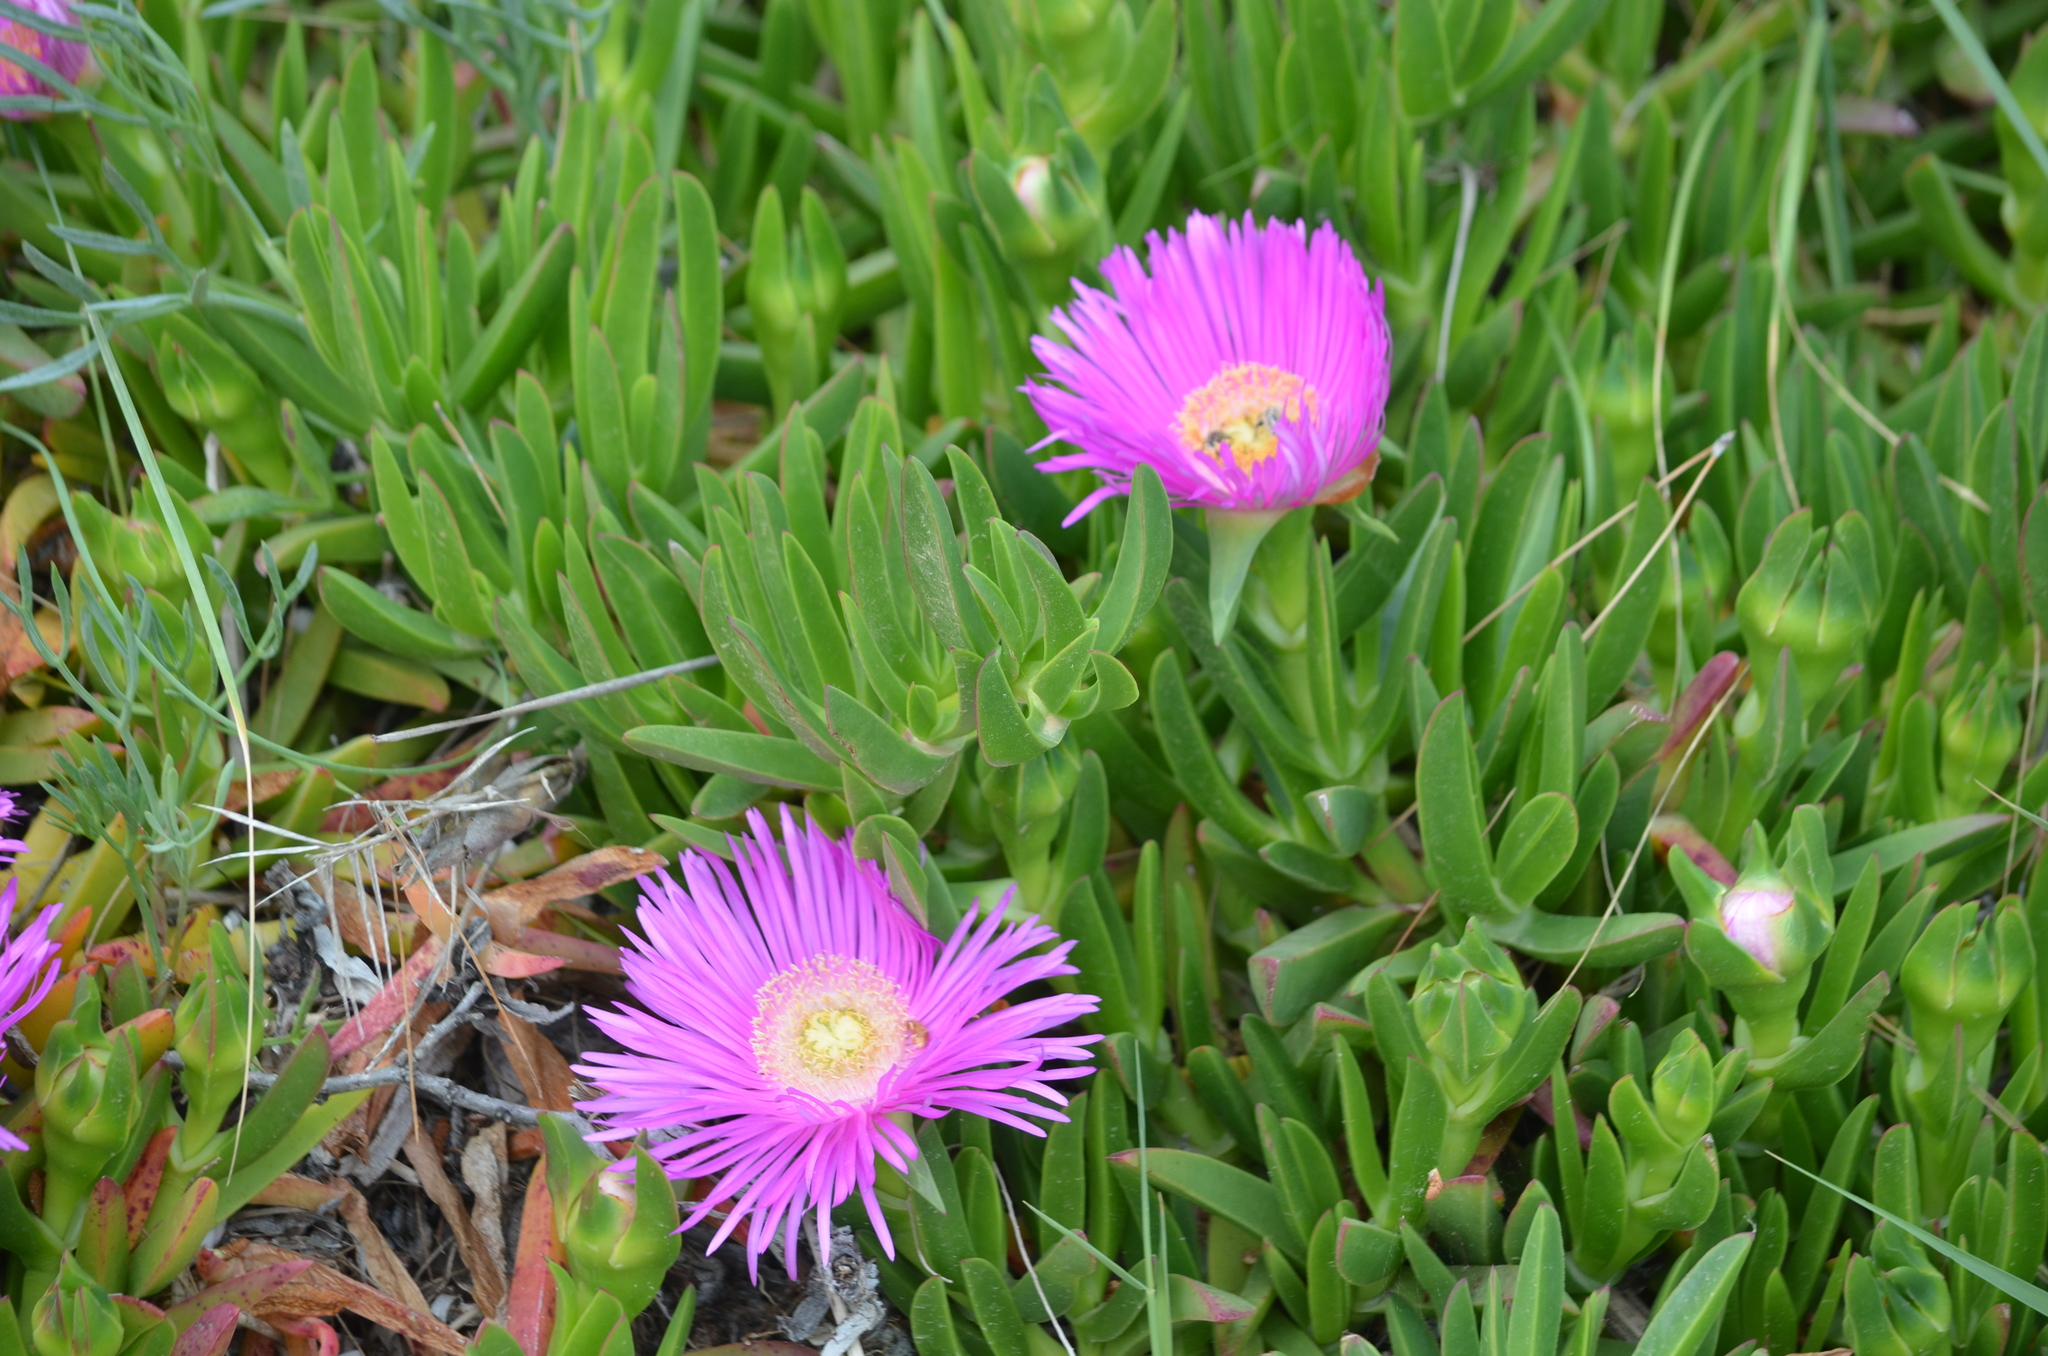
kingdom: Plantae
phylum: Tracheophyta
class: Magnoliopsida
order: Caryophyllales
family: Aizoaceae
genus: Carpobrotus
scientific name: Carpobrotus acinaciformis
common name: Sally-my-handsome
